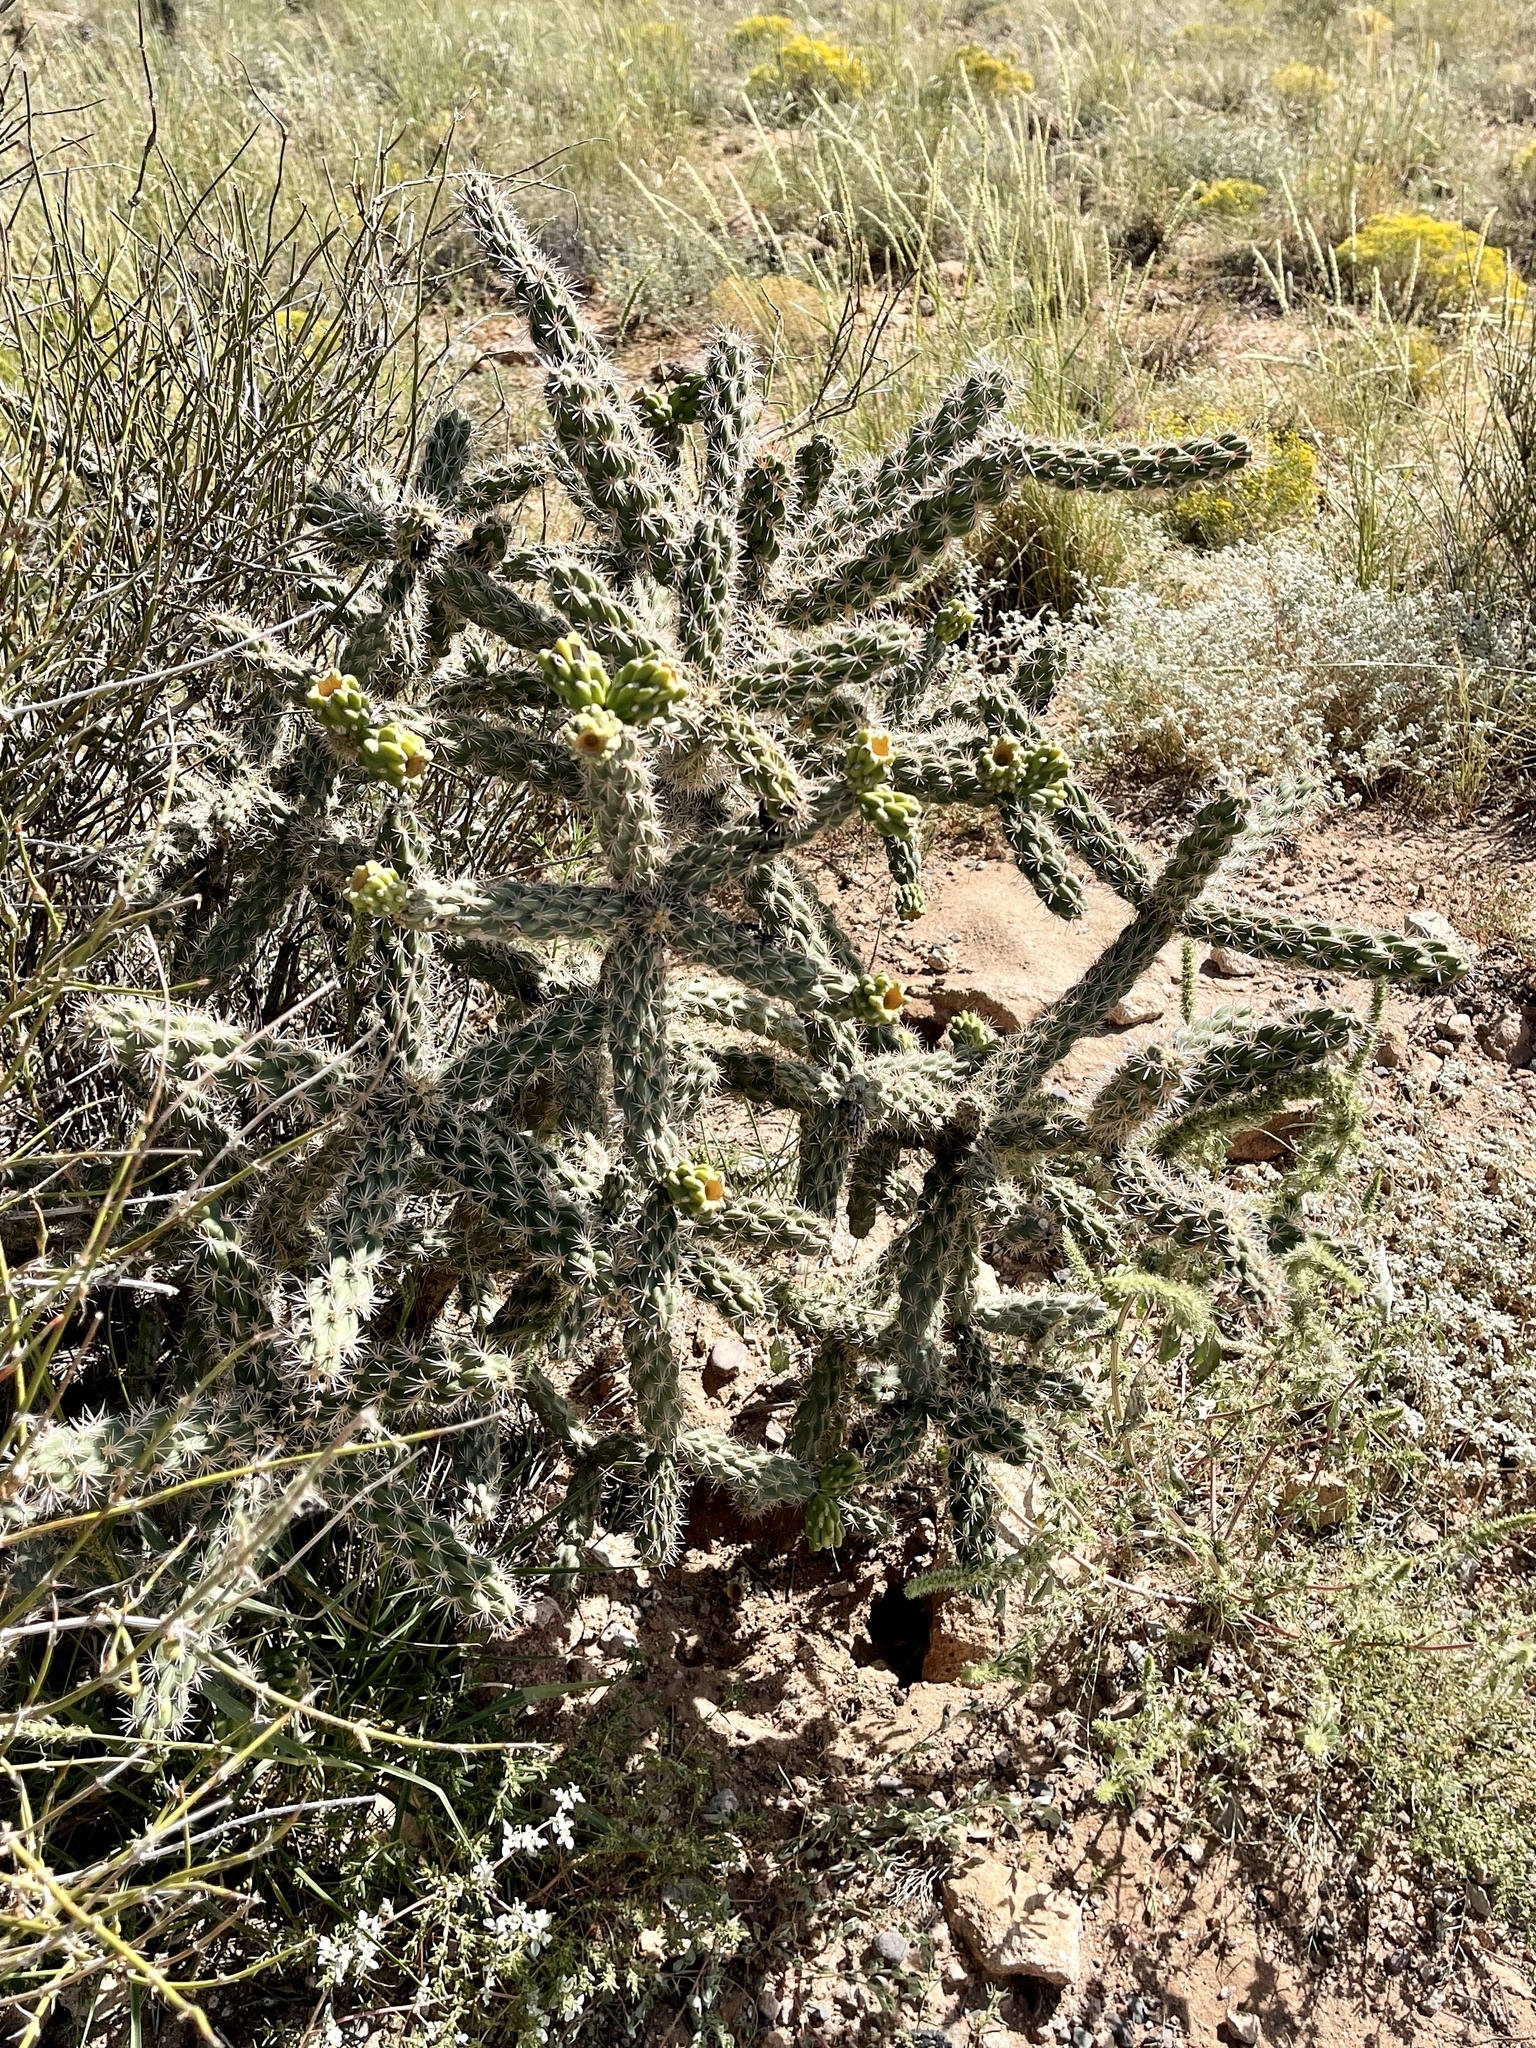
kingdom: Plantae
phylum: Tracheophyta
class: Magnoliopsida
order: Caryophyllales
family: Cactaceae
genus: Cylindropuntia
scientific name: Cylindropuntia imbricata
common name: Candelabrum cactus
